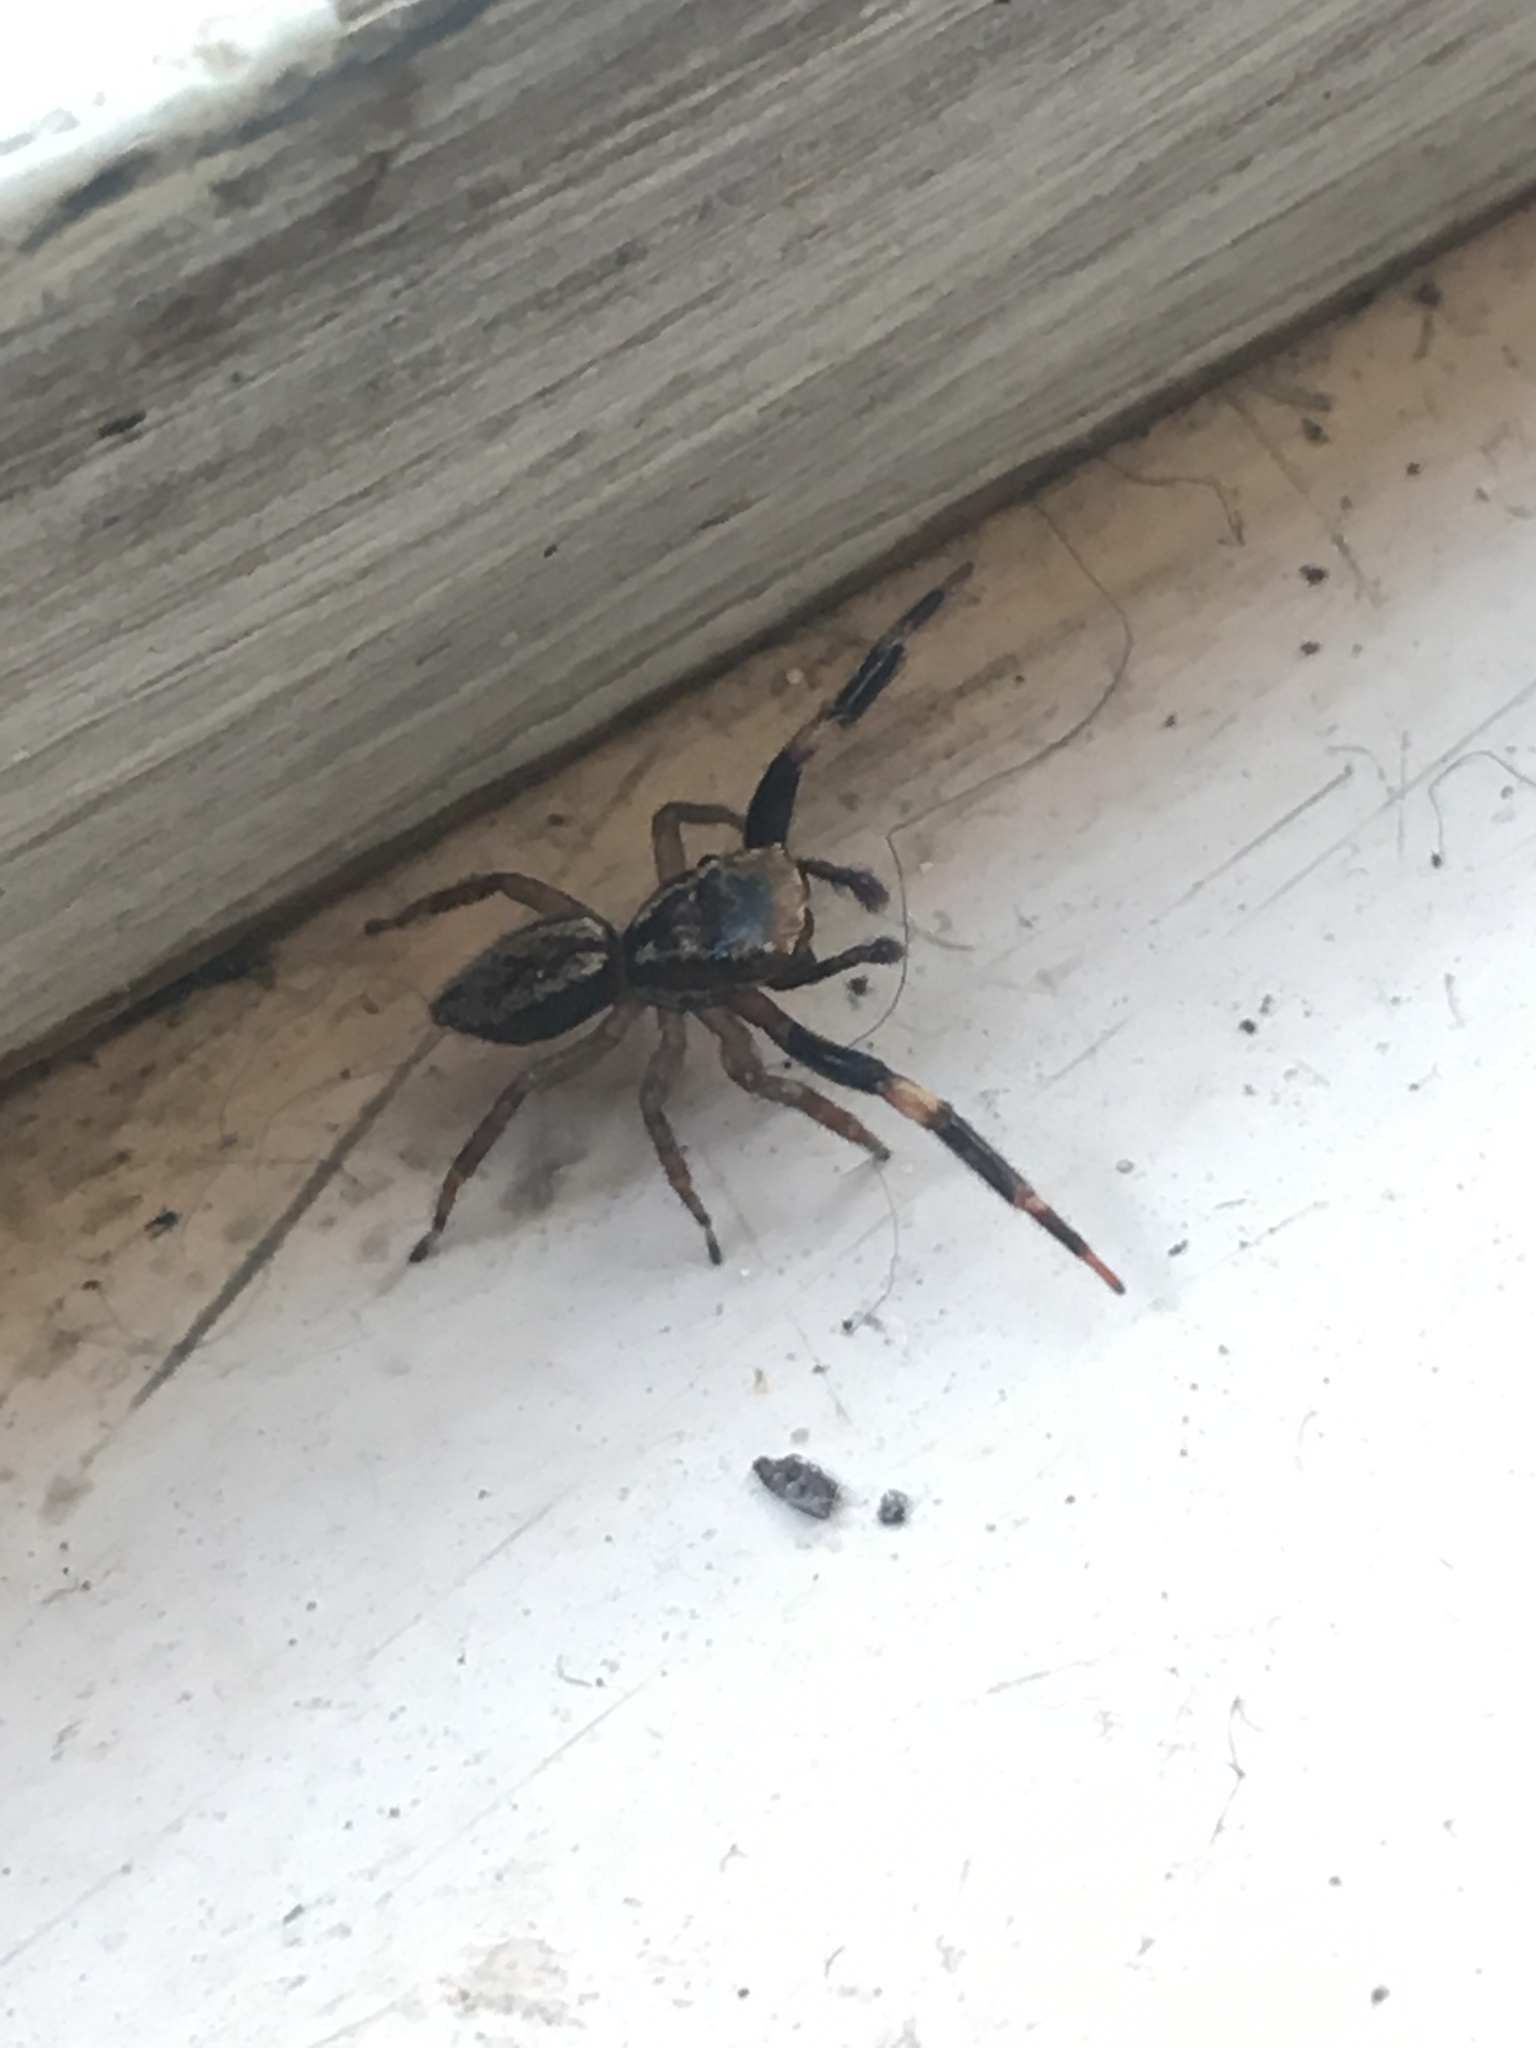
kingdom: Animalia
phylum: Arthropoda
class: Arachnida
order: Araneae
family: Salticidae
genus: Trite
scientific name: Trite auricoma
